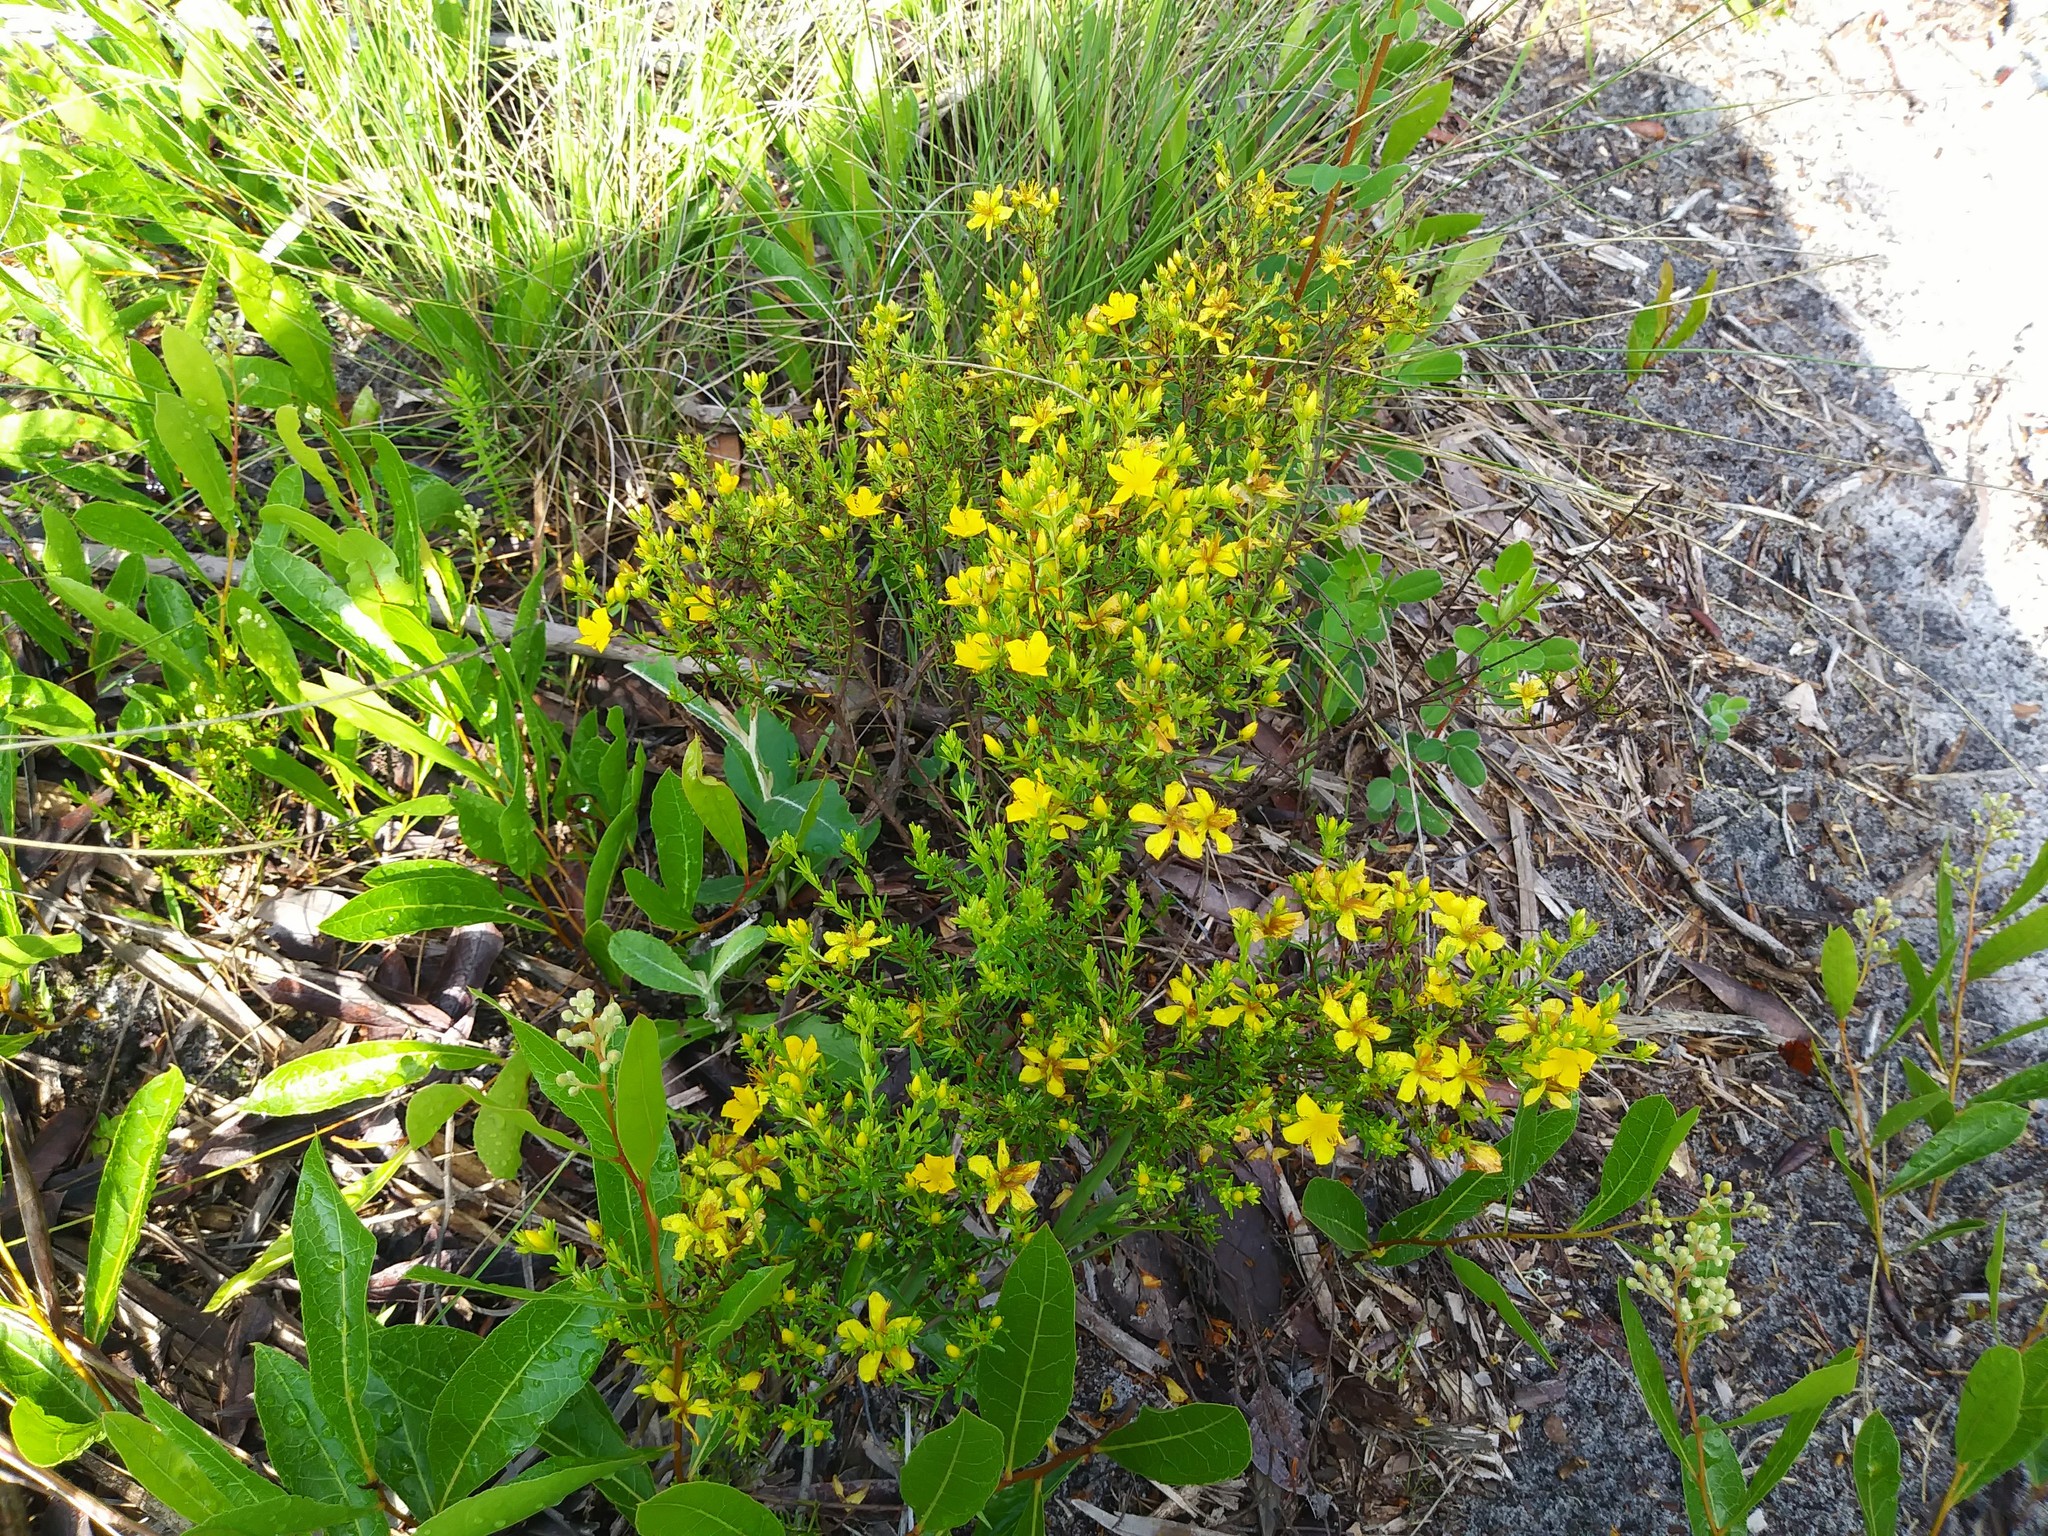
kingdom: Plantae
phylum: Tracheophyta
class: Magnoliopsida
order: Malpighiales
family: Hypericaceae
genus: Hypericum
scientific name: Hypericum tenuifolium
